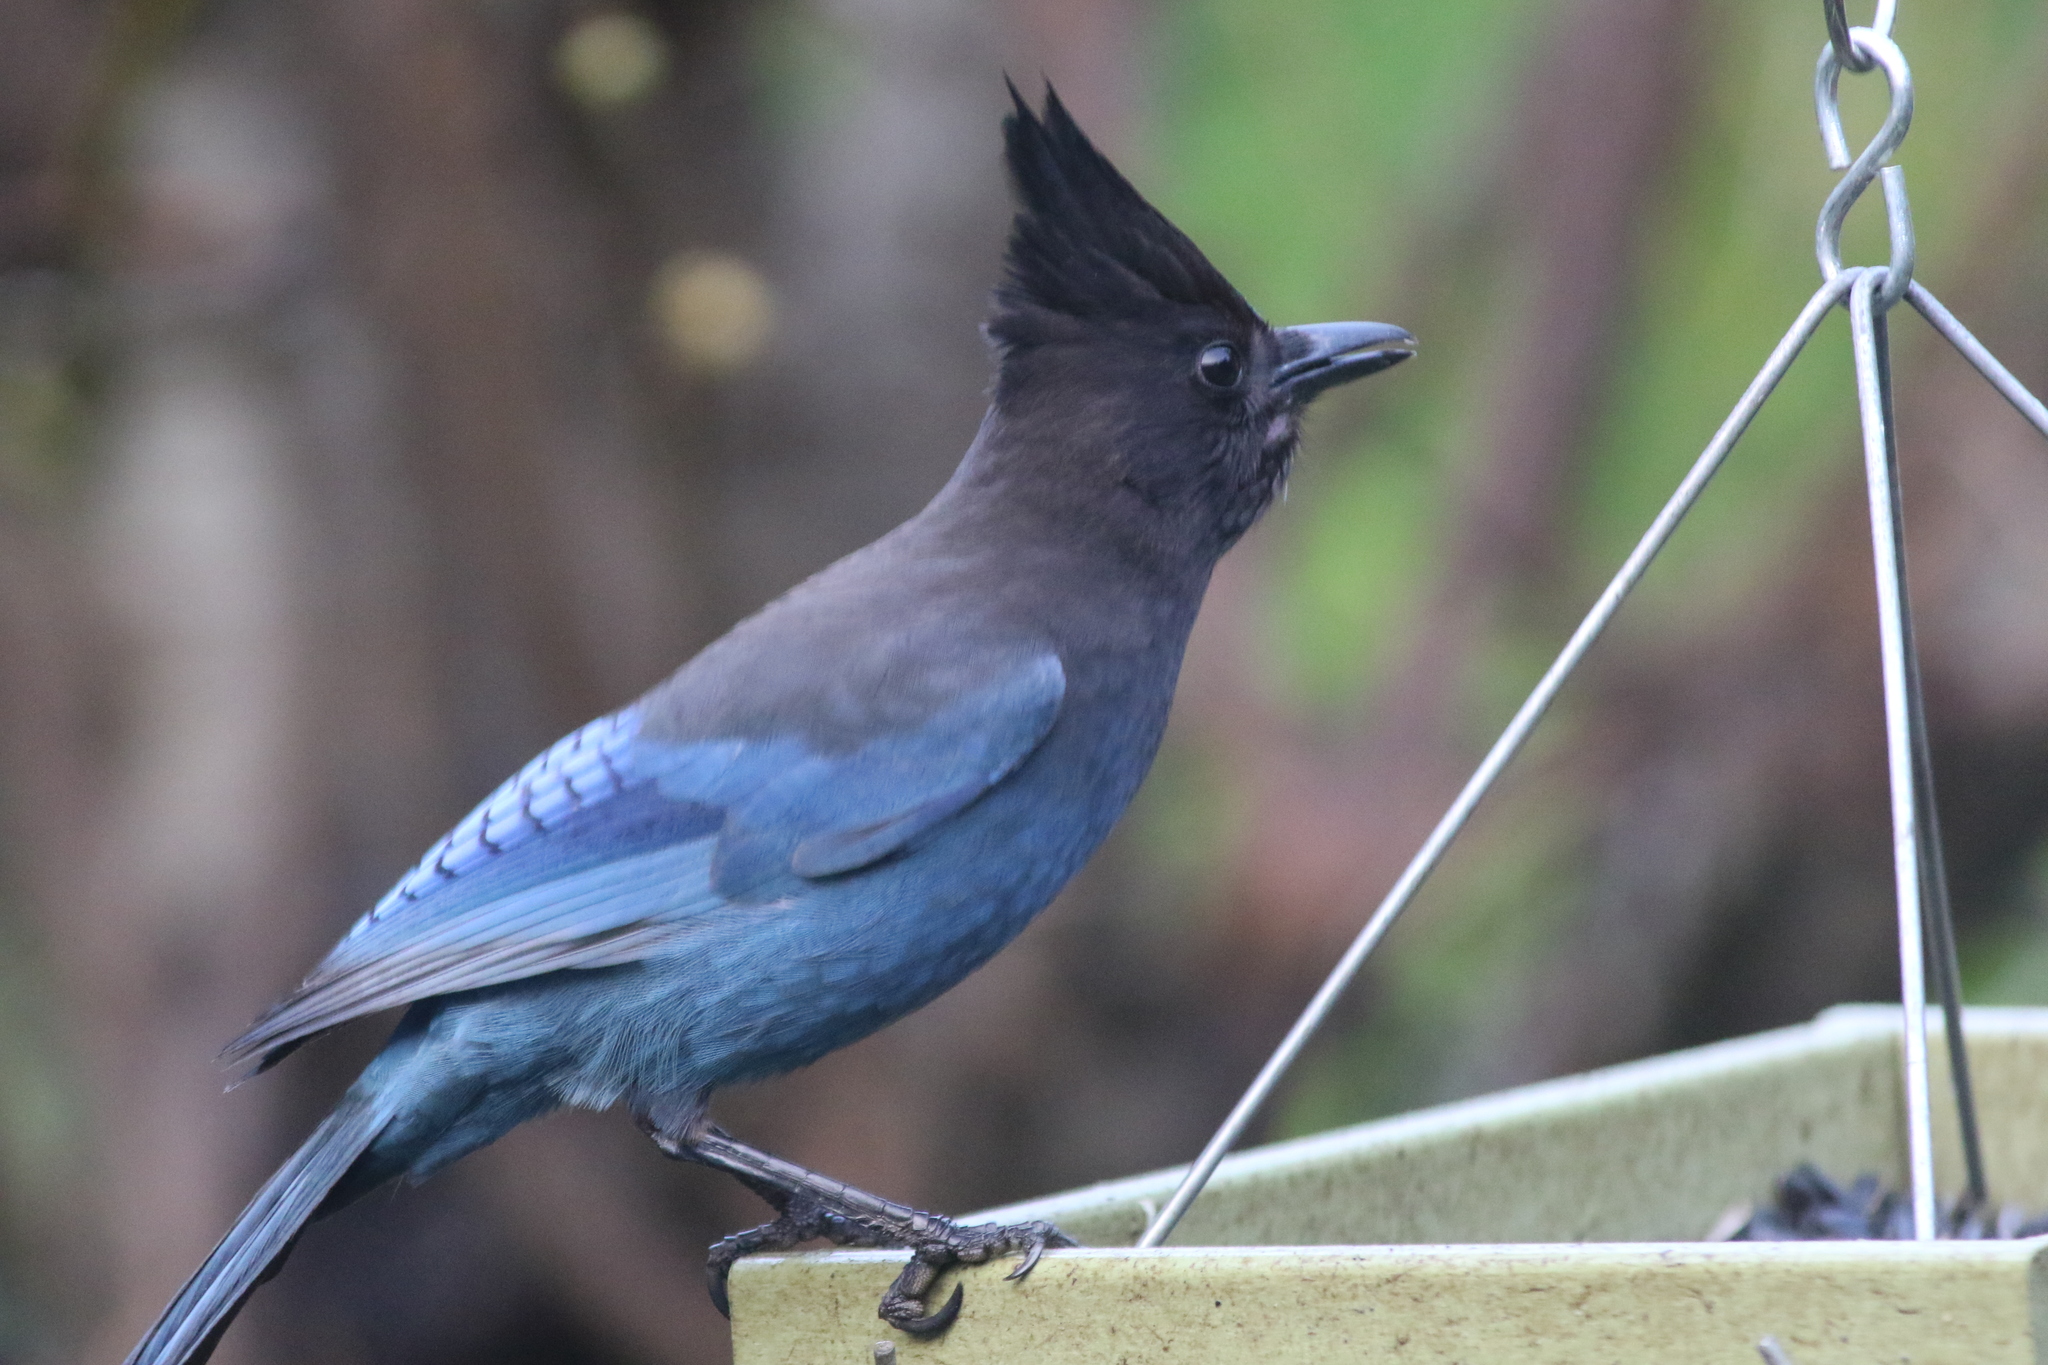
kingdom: Animalia
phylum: Chordata
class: Aves
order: Passeriformes
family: Corvidae
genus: Cyanocitta
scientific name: Cyanocitta stelleri
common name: Steller's jay
